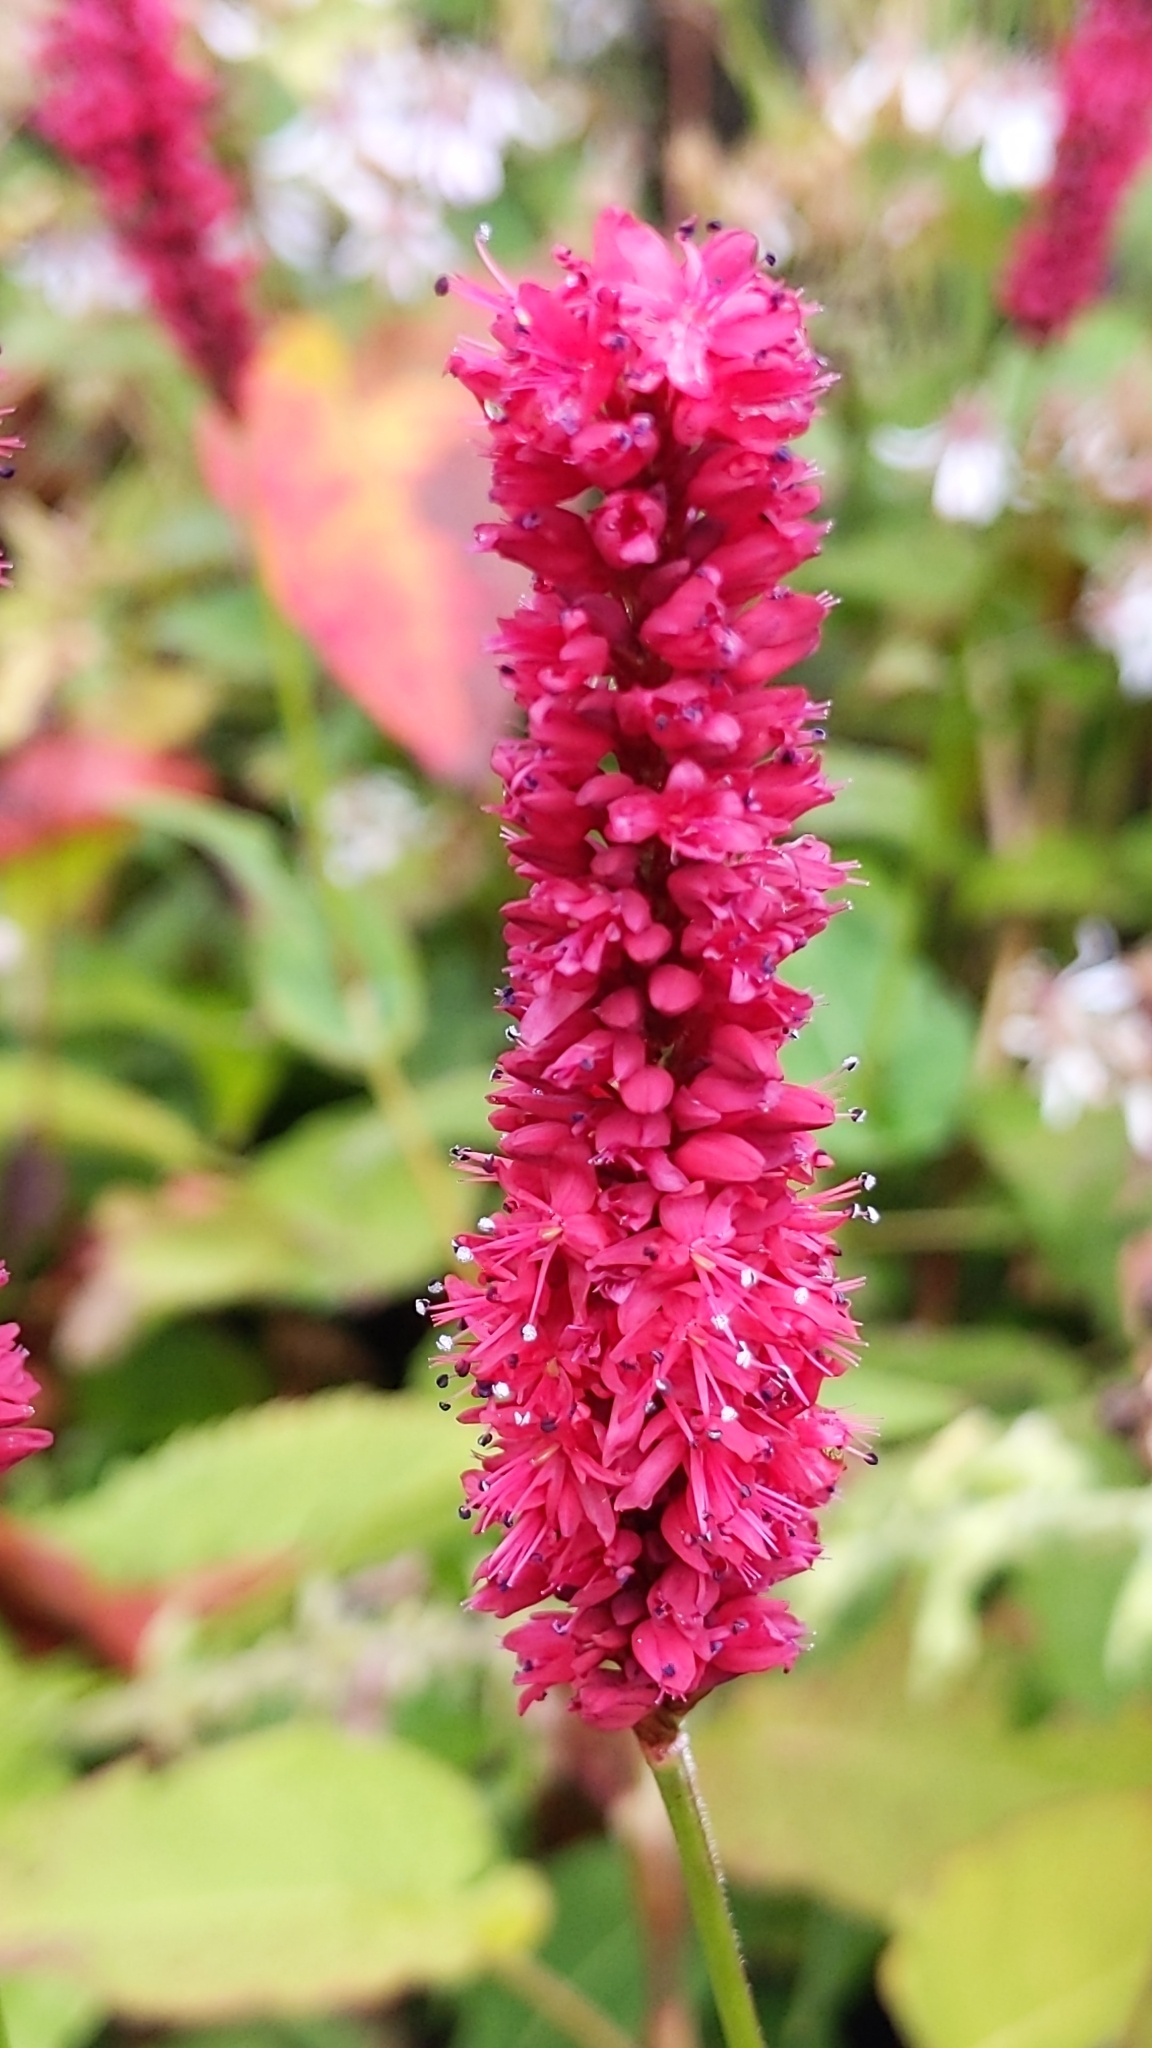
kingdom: Plantae
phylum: Tracheophyta
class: Magnoliopsida
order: Caryophyllales
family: Polygonaceae
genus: Bistorta
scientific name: Bistorta amplexicaulis
